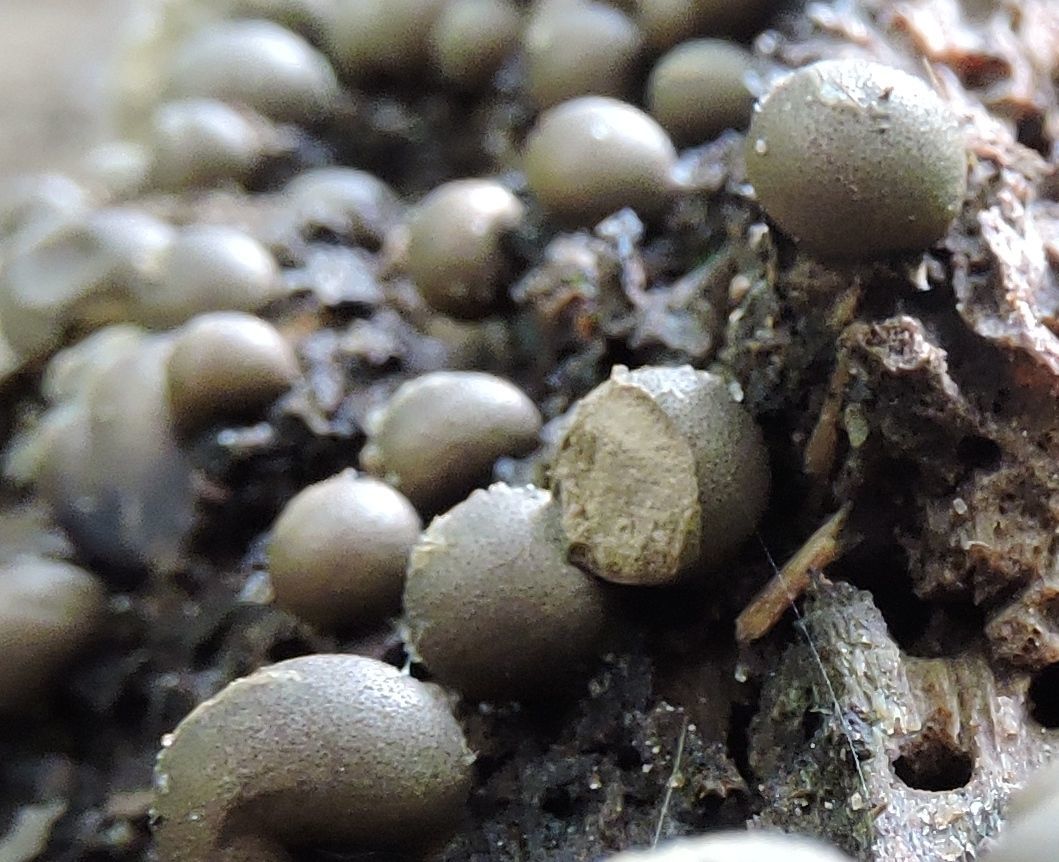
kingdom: Protozoa
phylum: Mycetozoa
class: Myxomycetes
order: Cribrariales
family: Tubiferaceae
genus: Lycogala
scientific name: Lycogala epidendrum
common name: Wolf's milk
